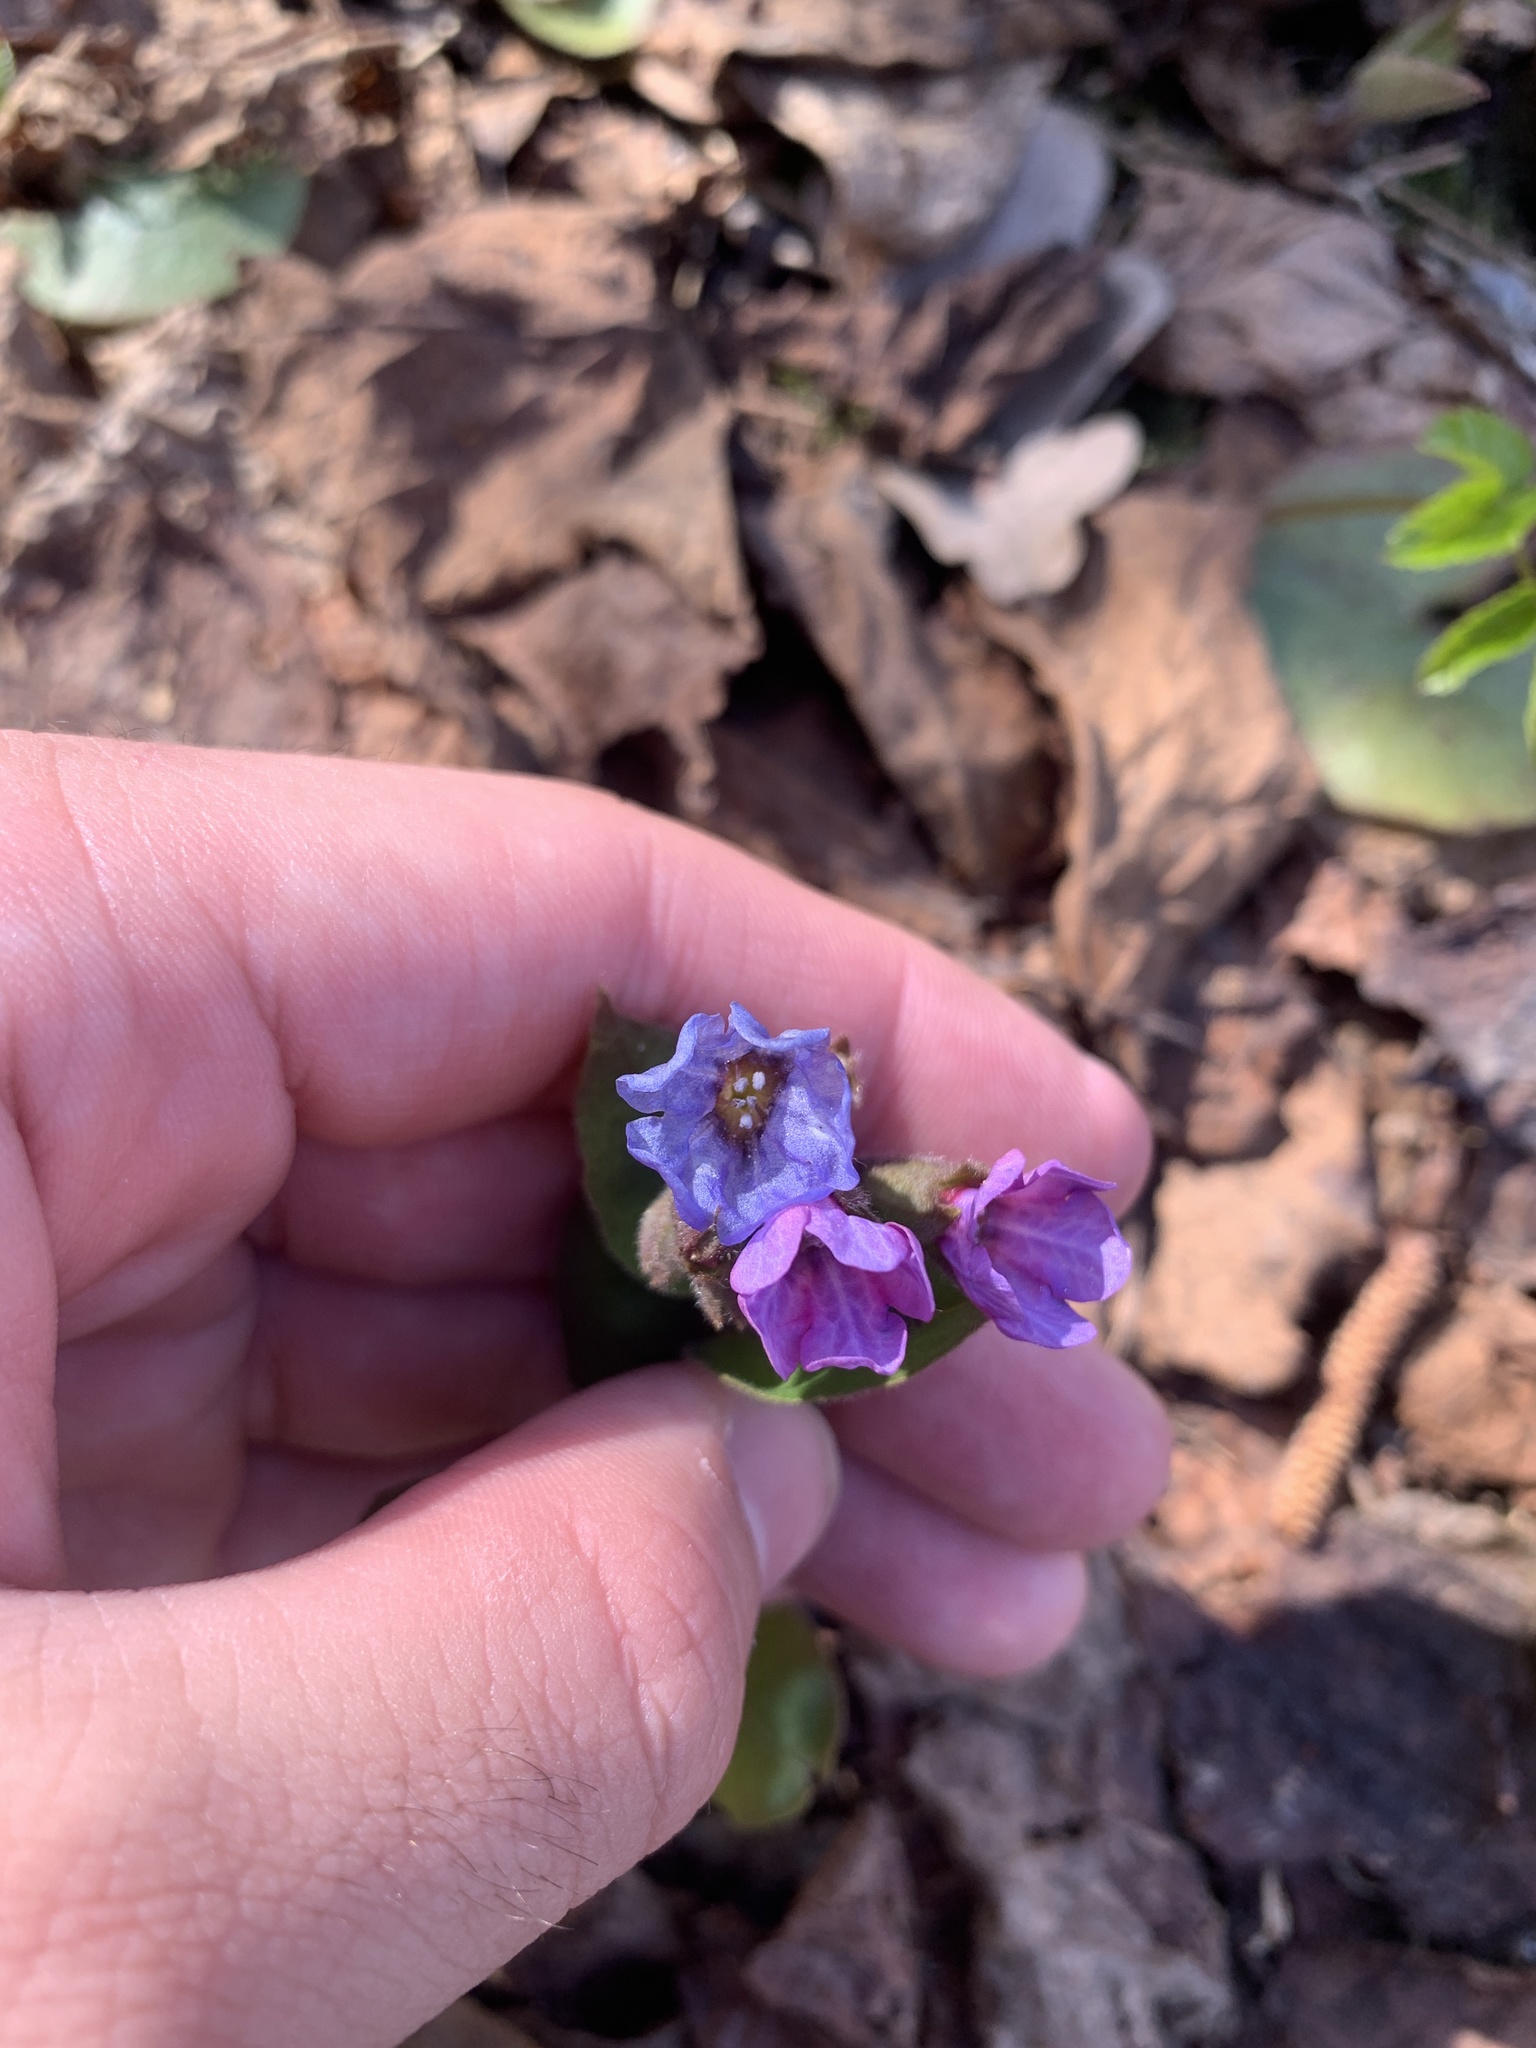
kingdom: Plantae
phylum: Tracheophyta
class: Magnoliopsida
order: Boraginales
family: Boraginaceae
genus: Pulmonaria
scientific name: Pulmonaria obscura
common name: Suffolk lungwort
